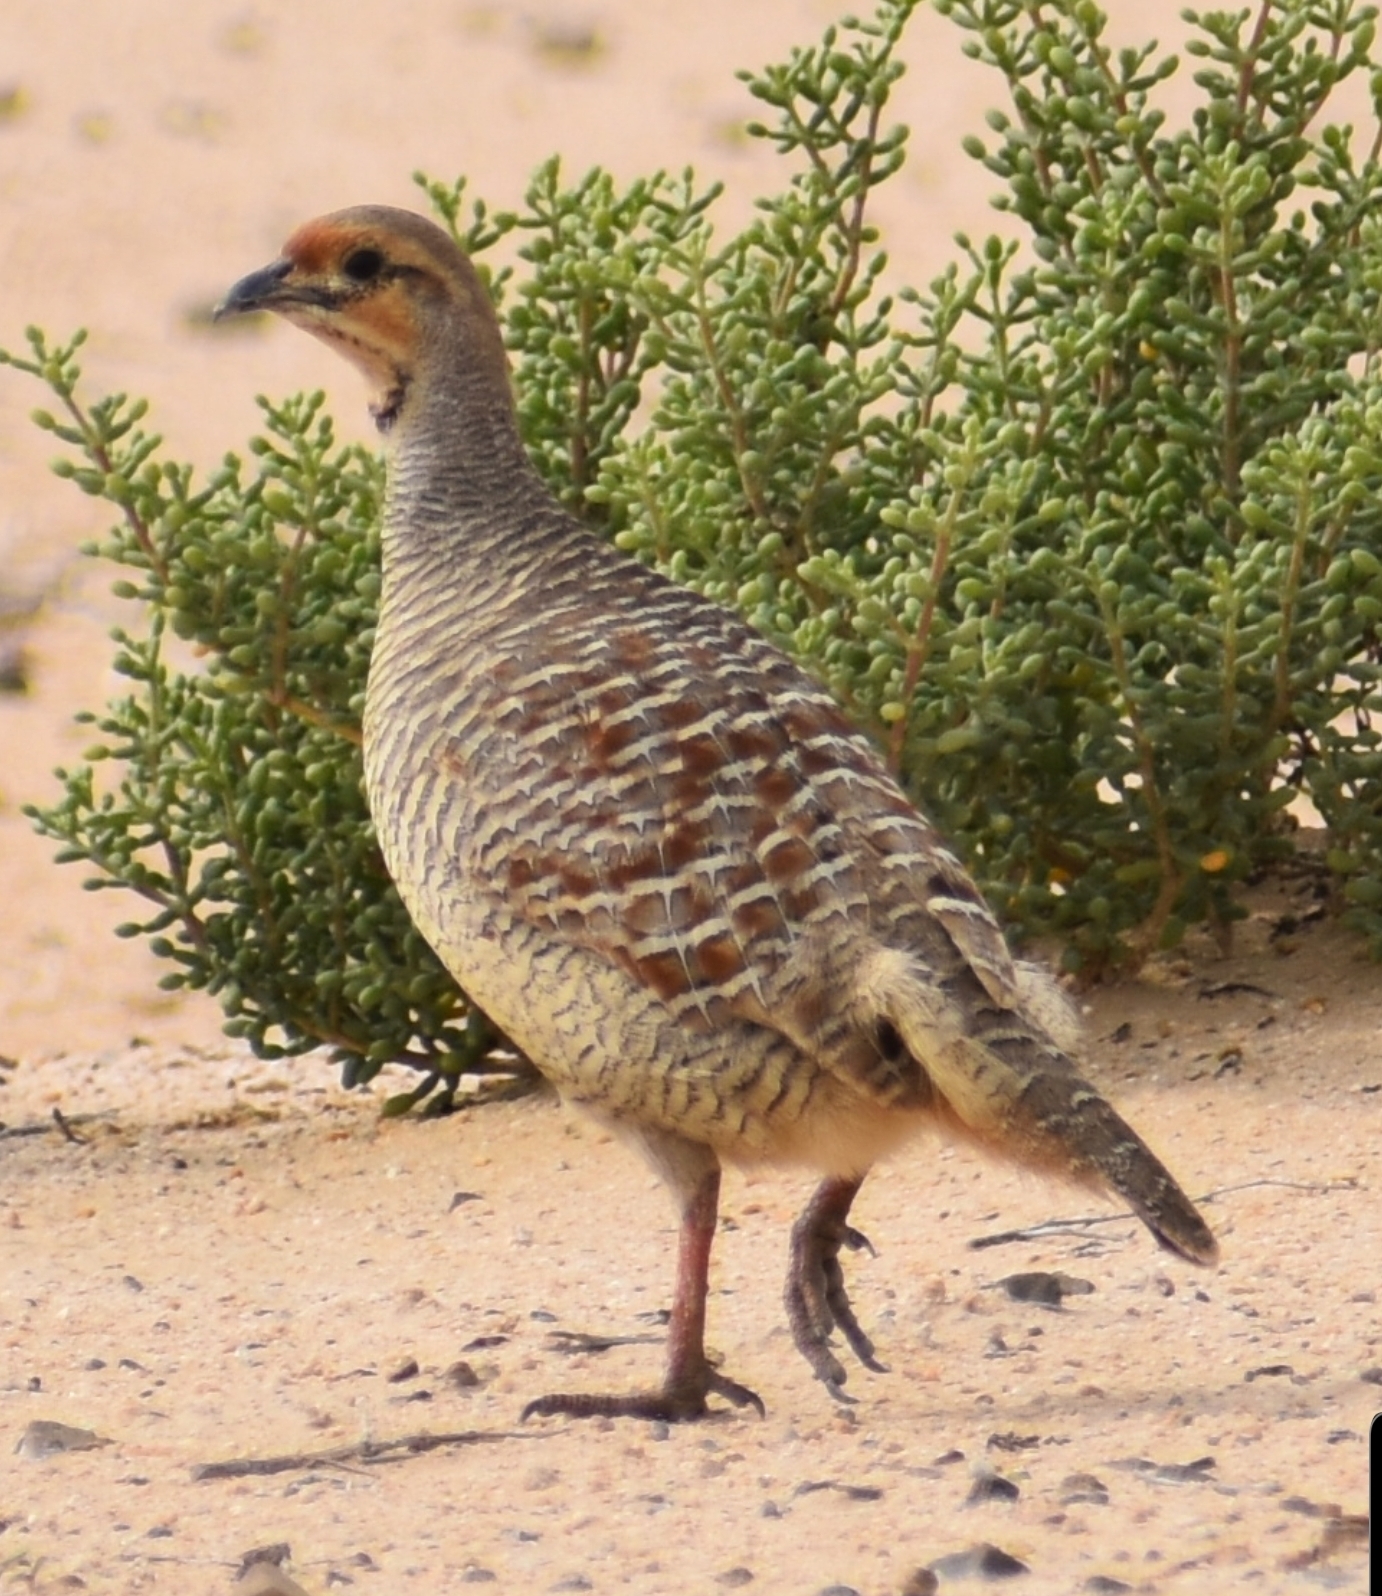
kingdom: Animalia
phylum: Chordata
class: Aves
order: Galliformes
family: Phasianidae
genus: Ortygornis
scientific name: Ortygornis pondicerianus
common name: Grey francolin
